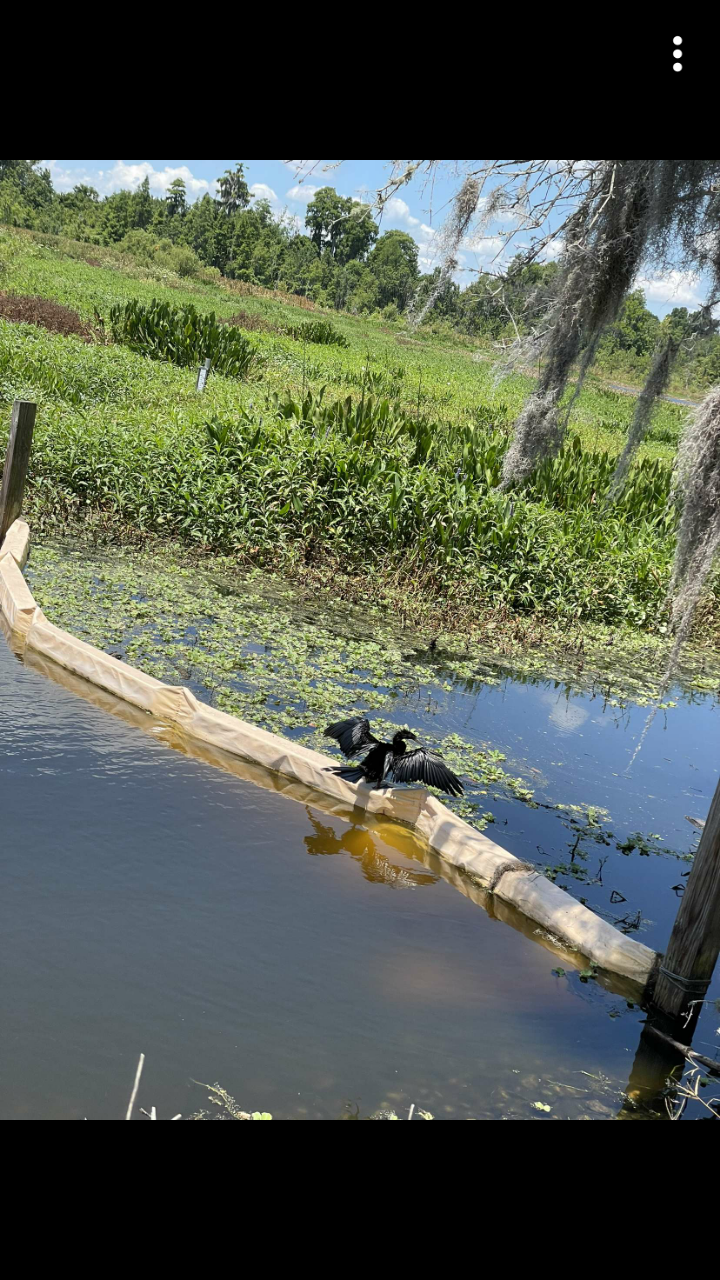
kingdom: Animalia
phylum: Chordata
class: Aves
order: Suliformes
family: Anhingidae
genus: Anhinga
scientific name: Anhinga anhinga
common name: Anhinga
